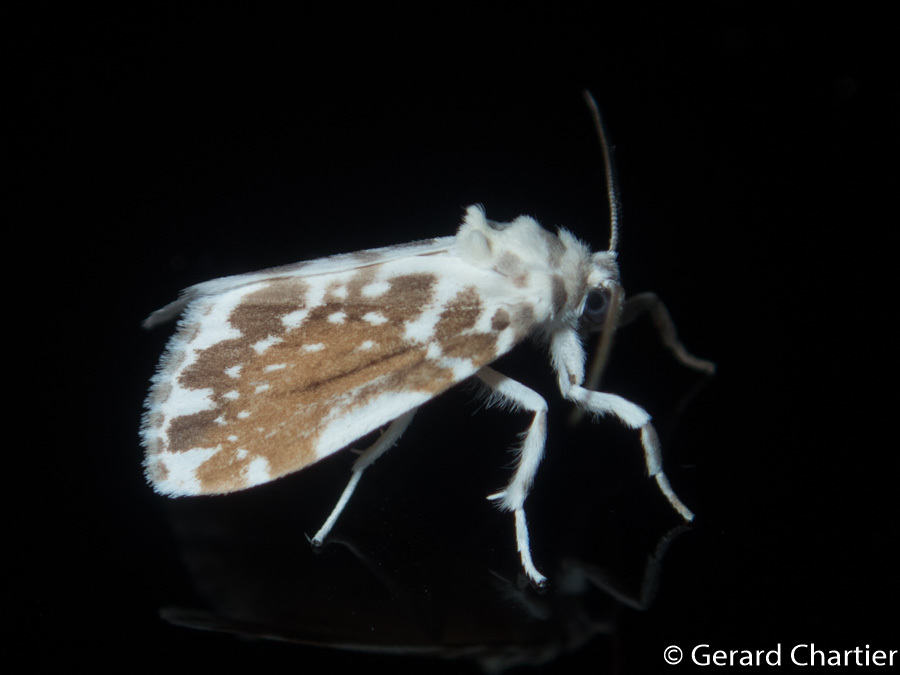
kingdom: Animalia
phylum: Arthropoda
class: Insecta
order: Lepidoptera
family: Erebidae
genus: Pseudoadites
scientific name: Pseudoadites frigida
